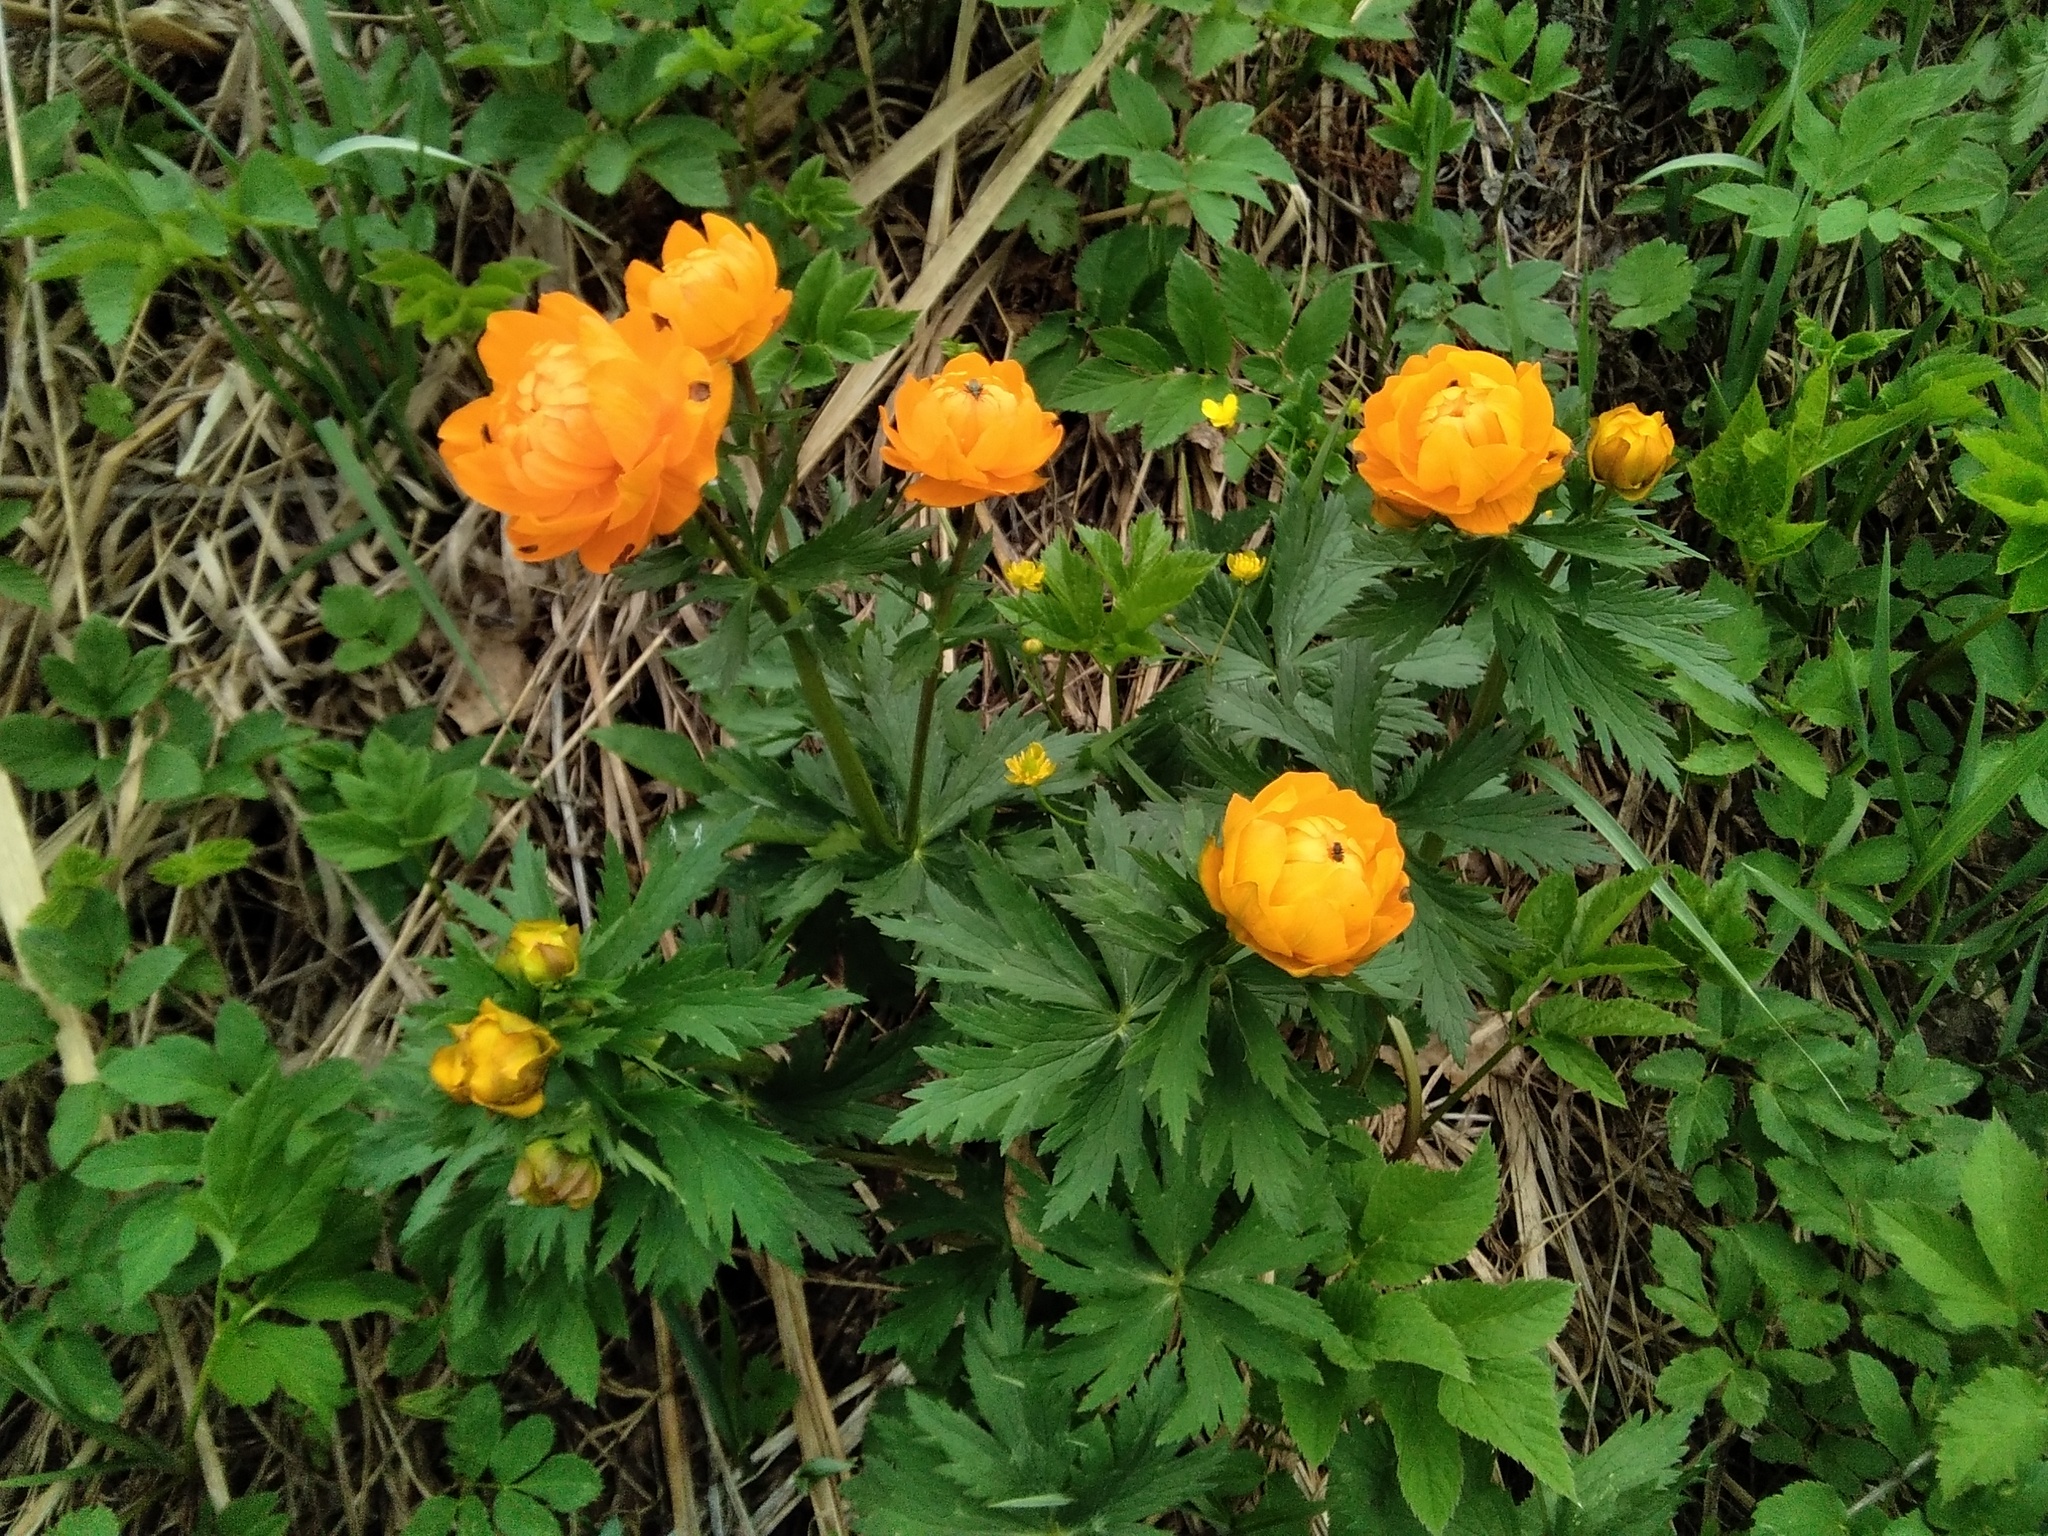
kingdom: Plantae
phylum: Tracheophyta
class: Magnoliopsida
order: Ranunculales
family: Ranunculaceae
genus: Trollius
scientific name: Trollius asiaticus
